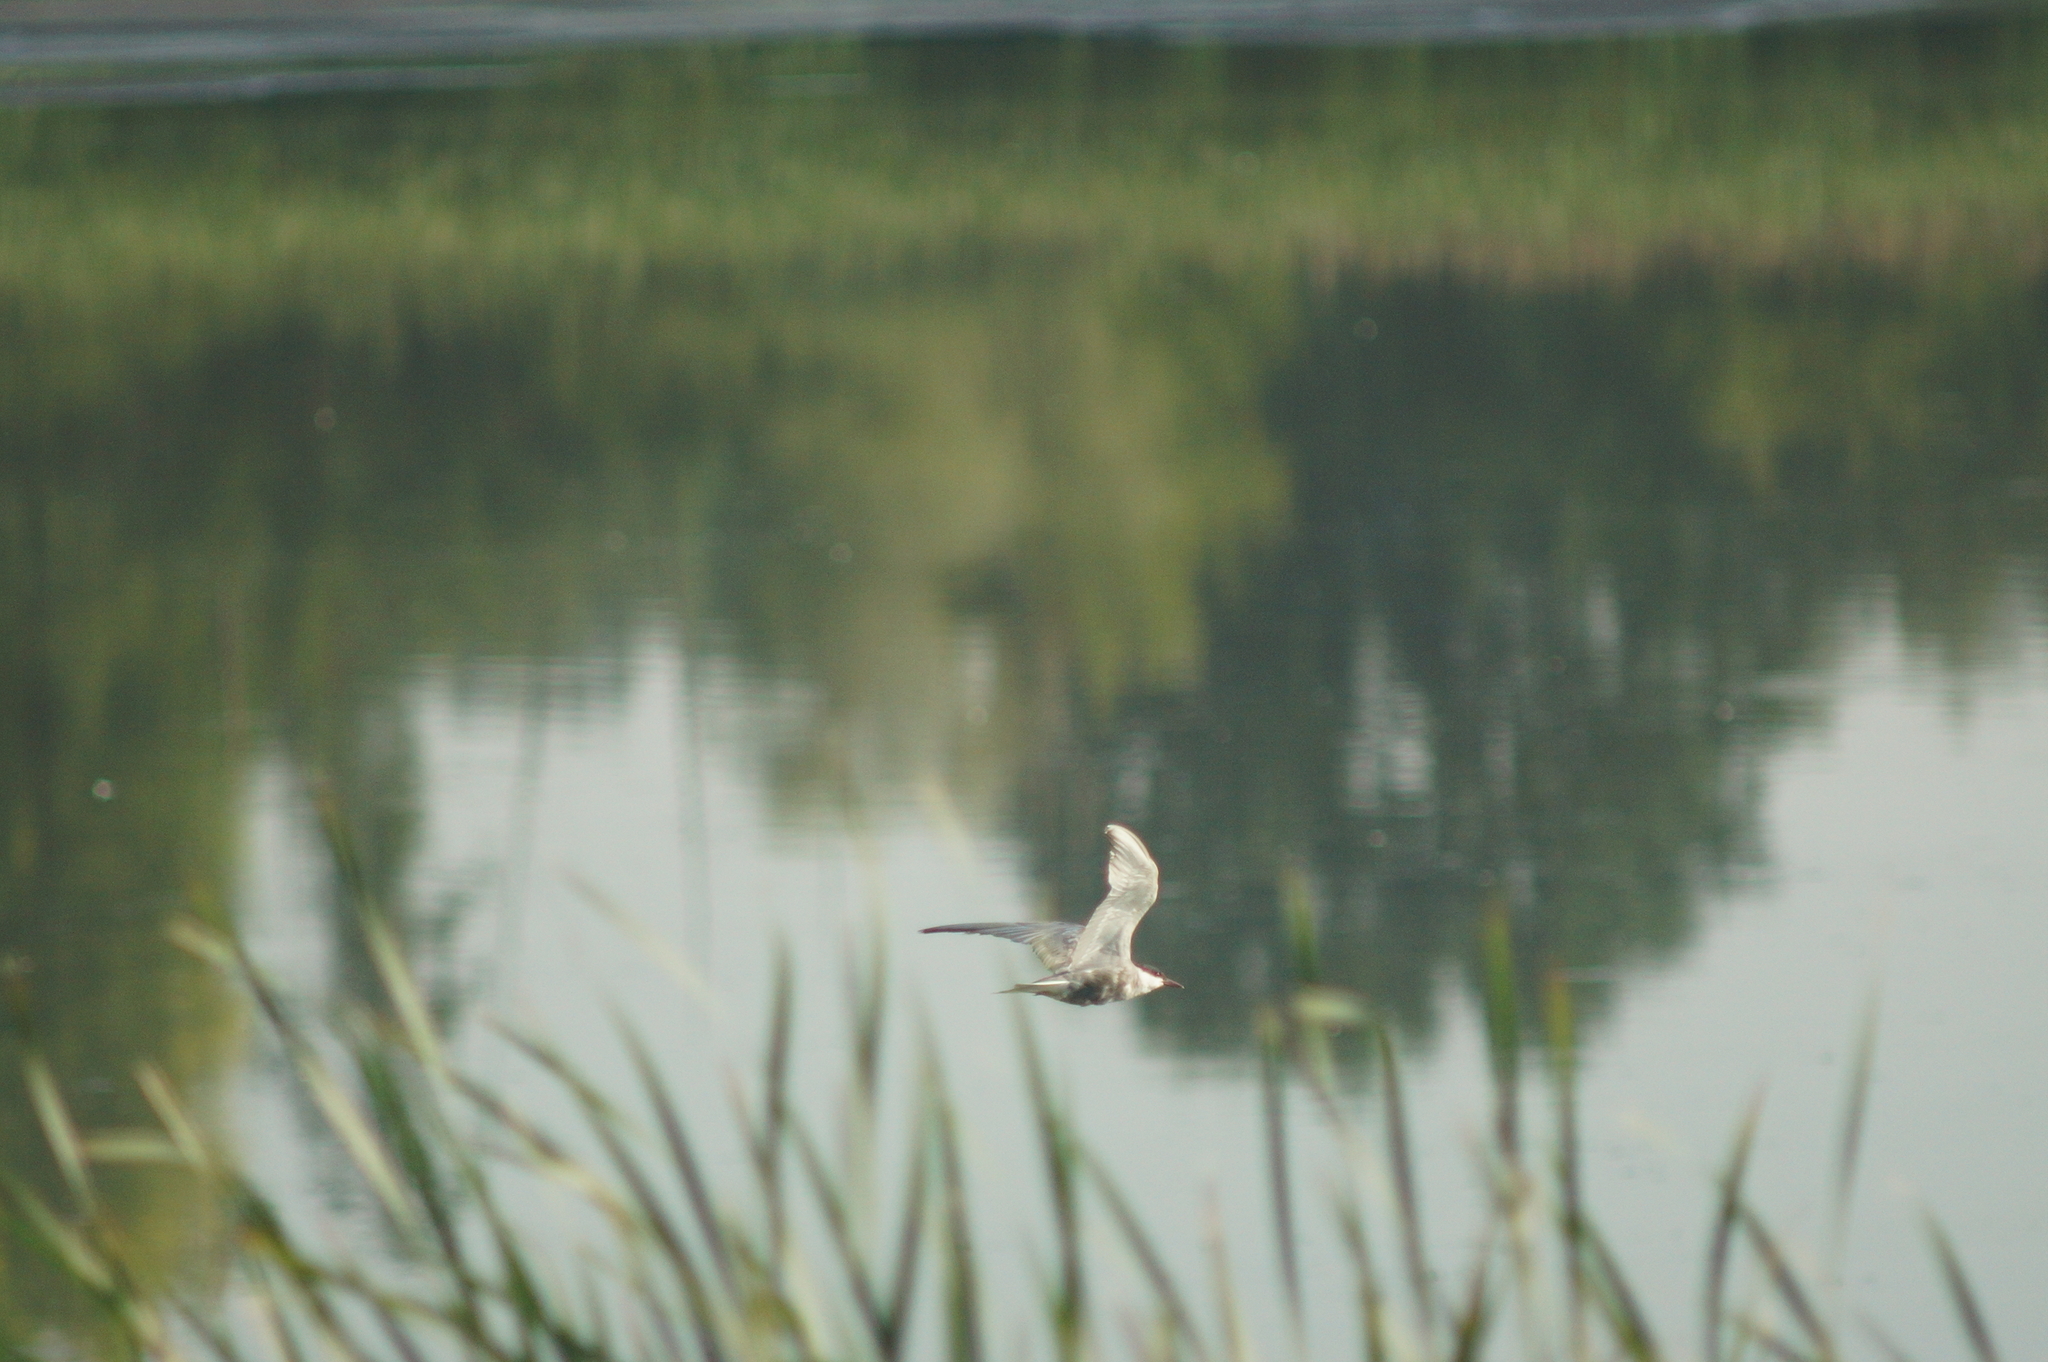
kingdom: Animalia
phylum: Chordata
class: Aves
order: Charadriiformes
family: Laridae
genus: Chlidonias
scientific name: Chlidonias hybrida
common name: Whiskered tern
